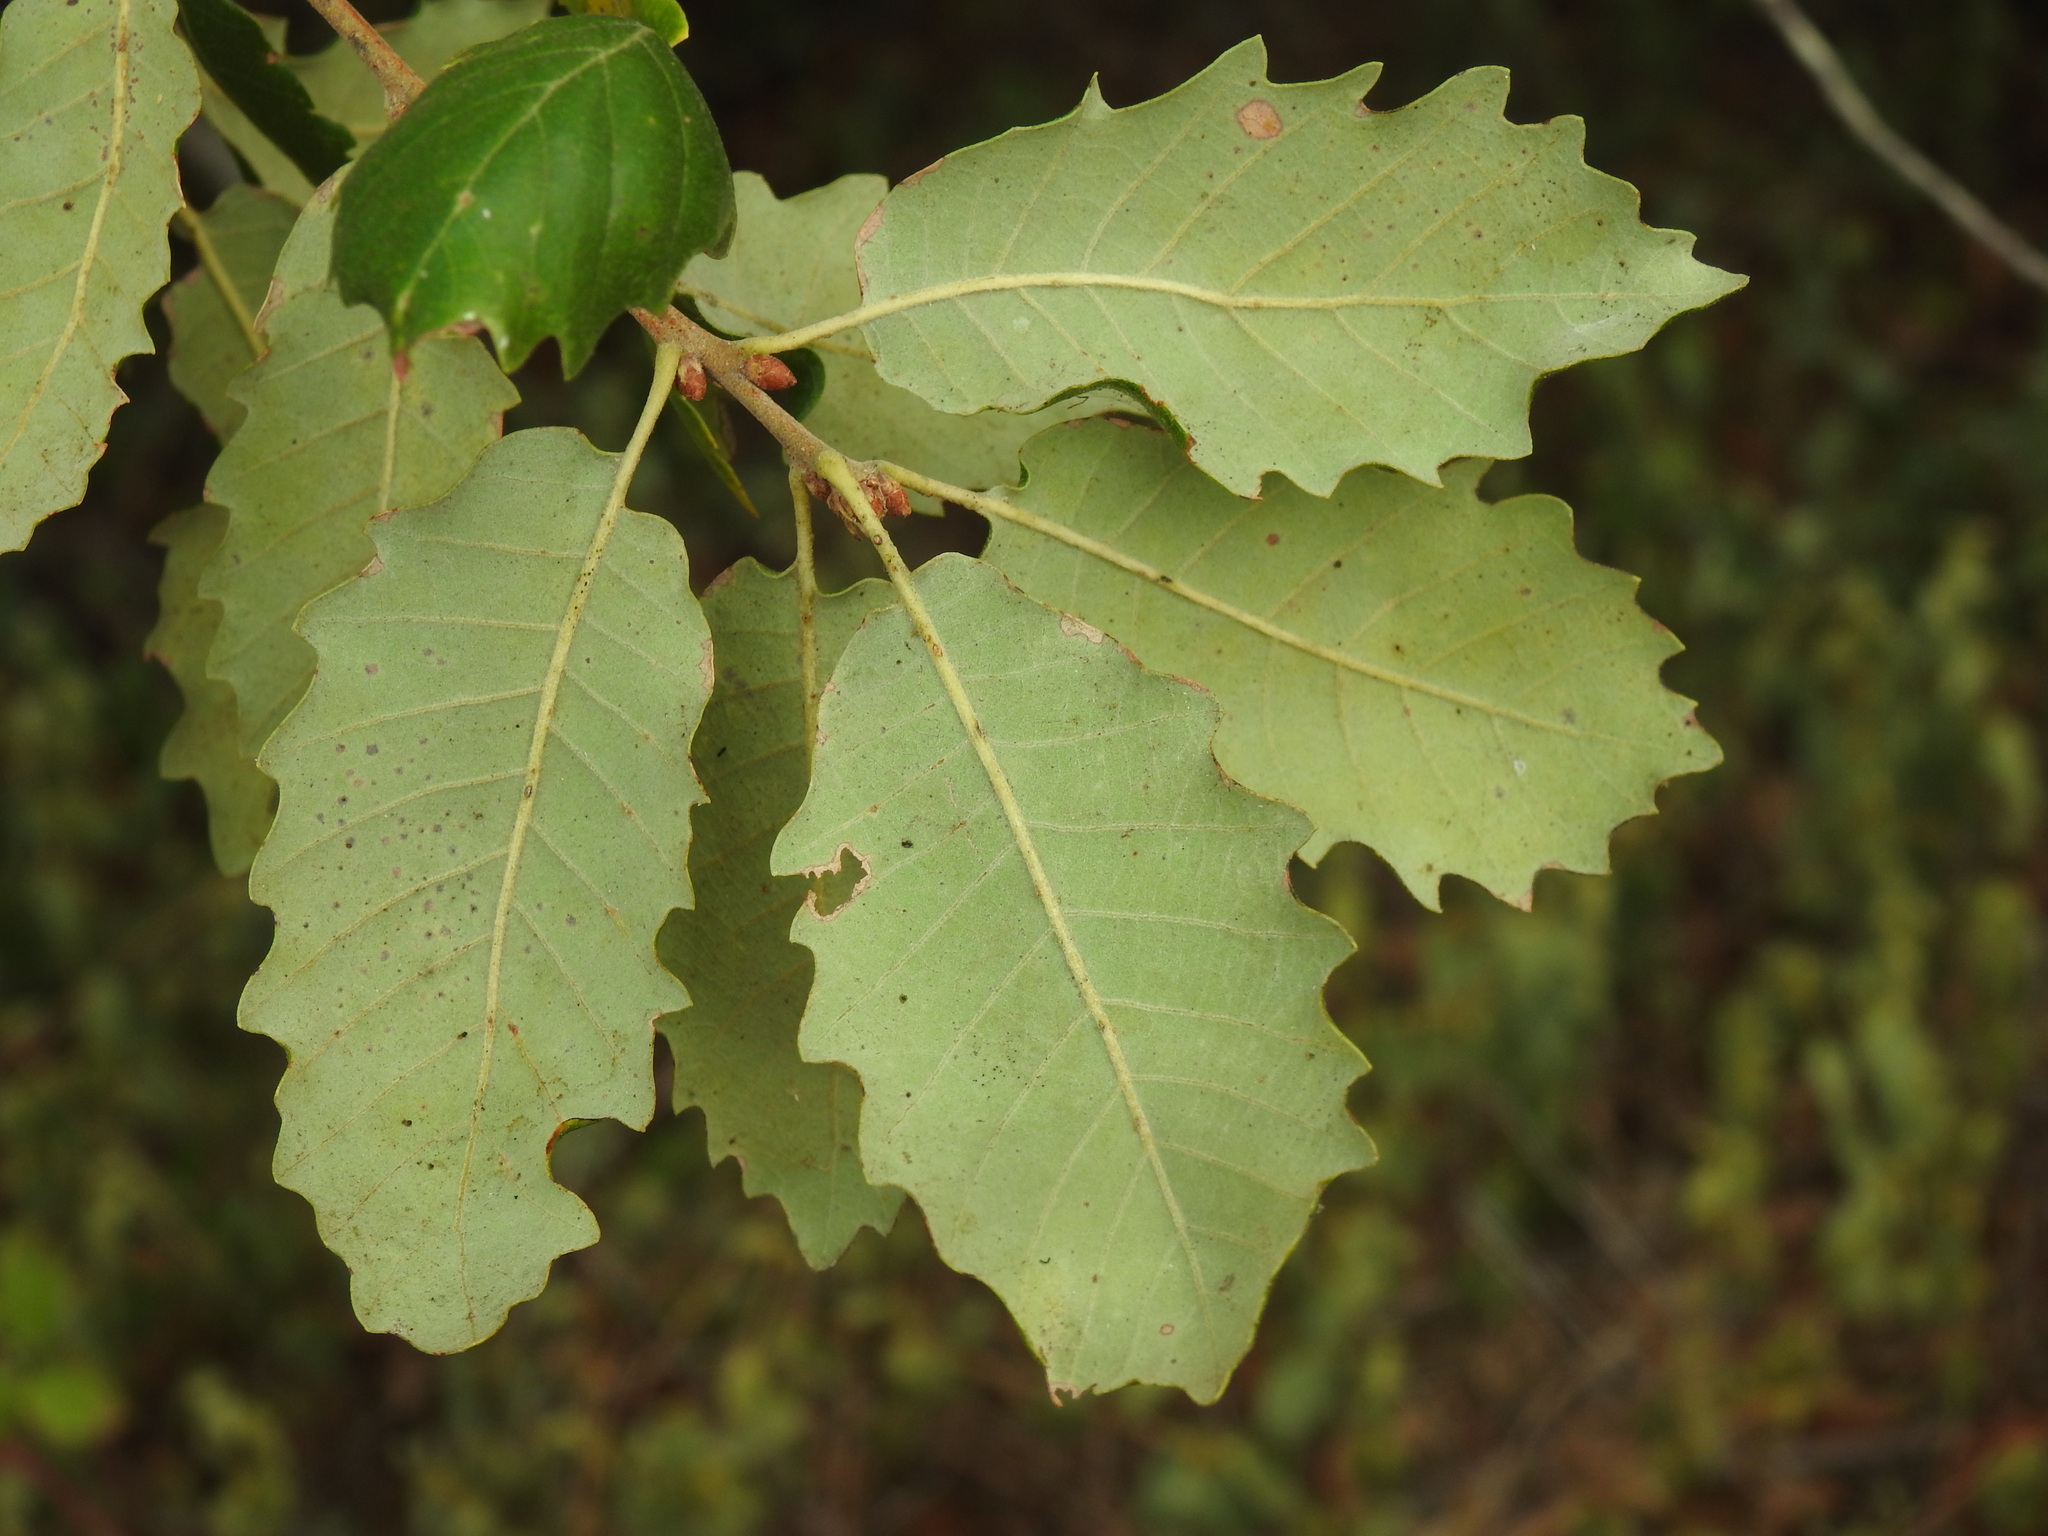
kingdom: Plantae
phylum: Tracheophyta
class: Magnoliopsida
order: Fagales
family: Fagaceae
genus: Quercus
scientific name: Quercus faginea
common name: Gall oak tree
